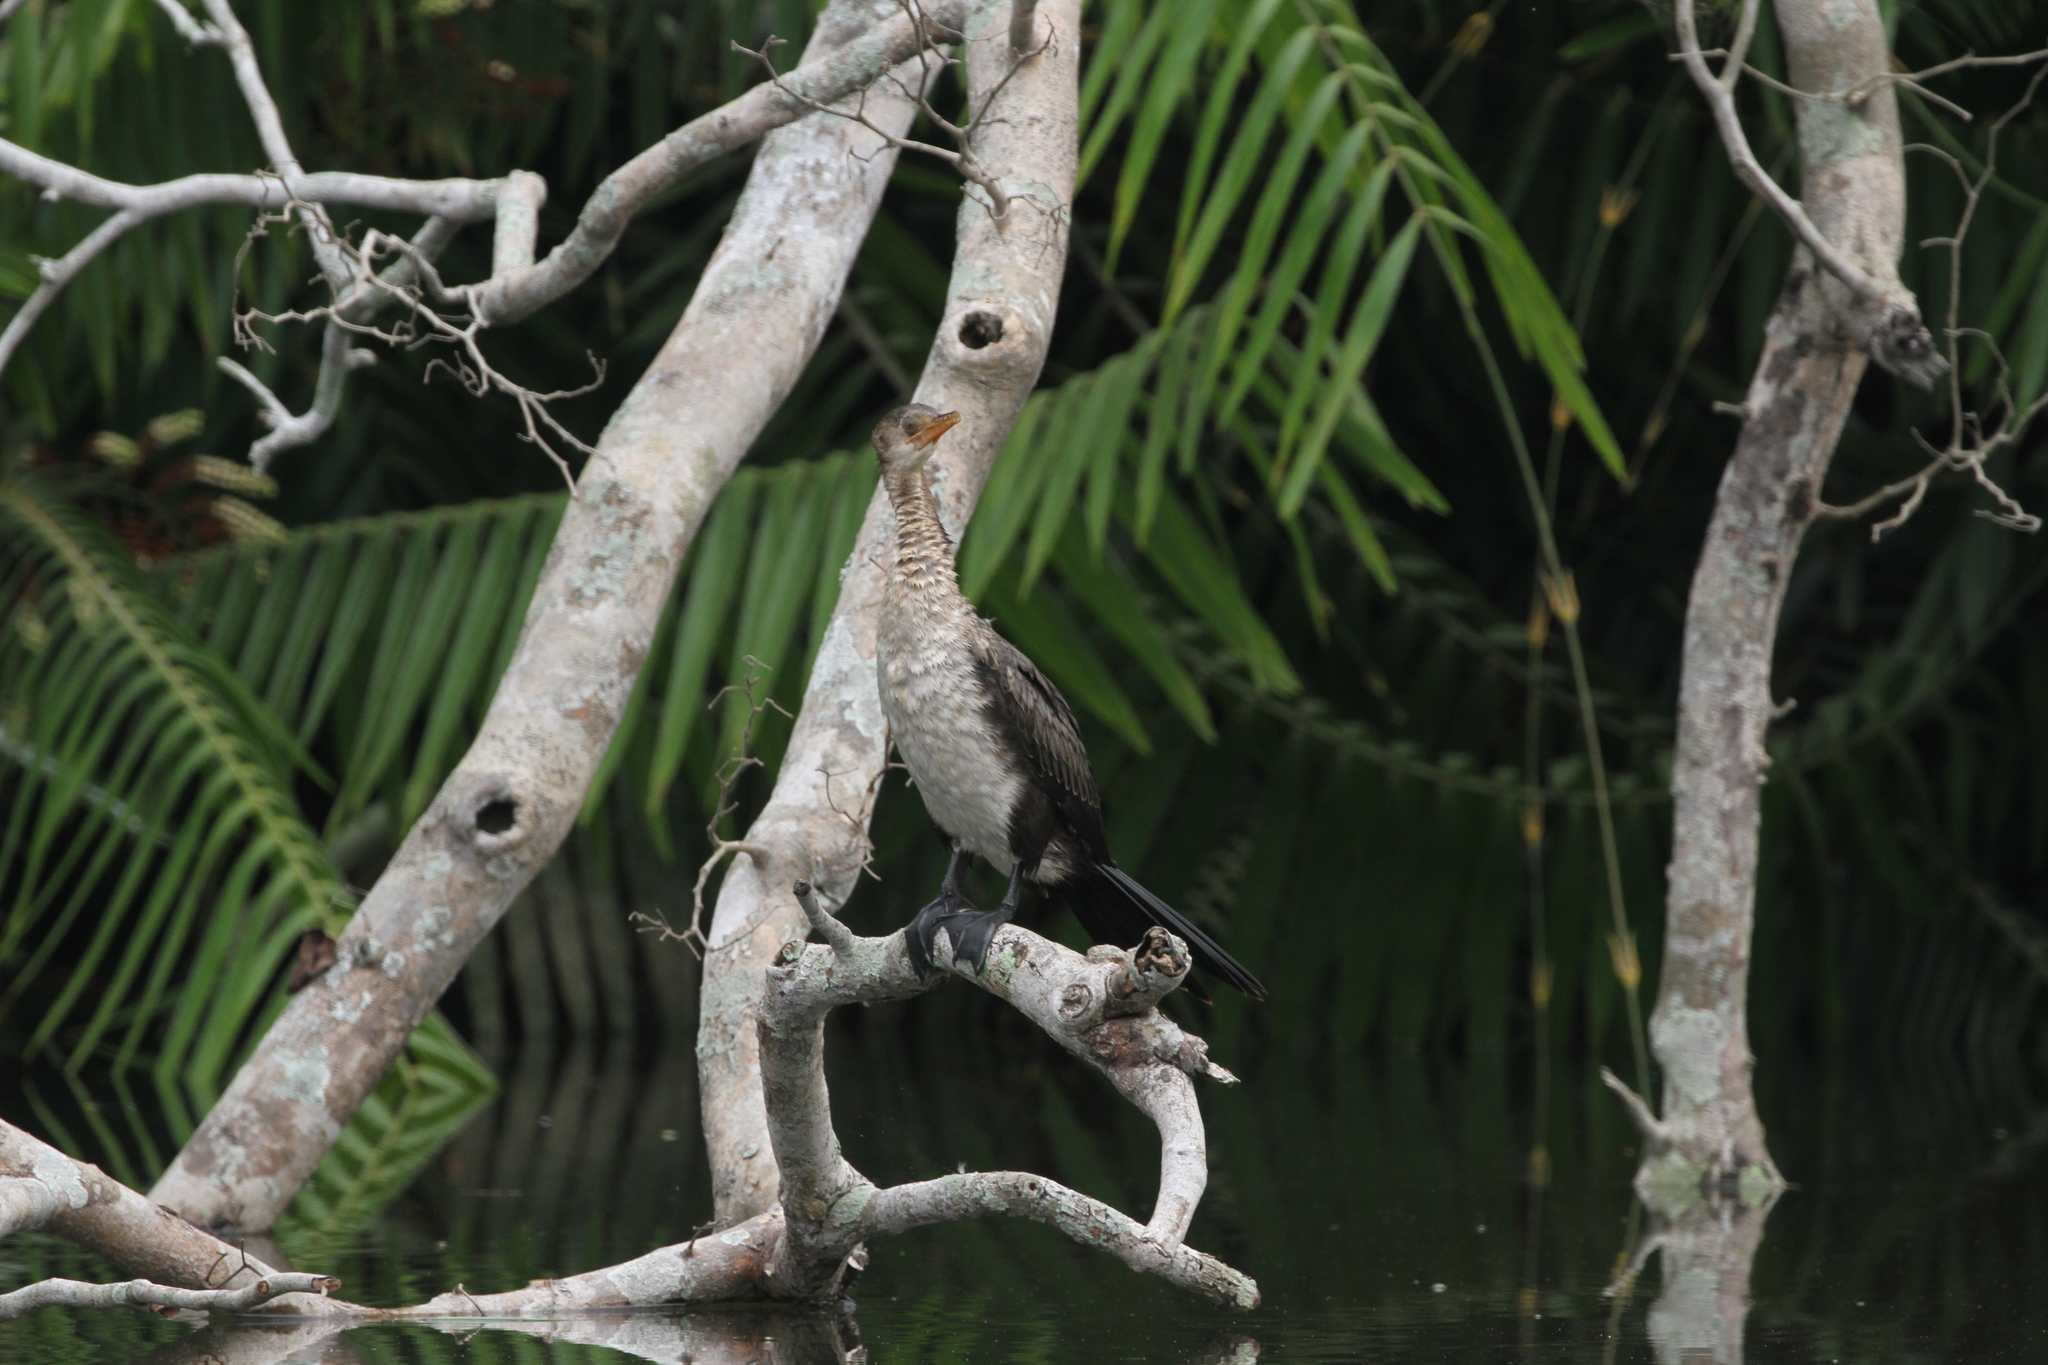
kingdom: Animalia
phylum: Chordata
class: Aves
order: Suliformes
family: Phalacrocoracidae
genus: Microcarbo
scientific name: Microcarbo africanus
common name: Long-tailed cormorant
